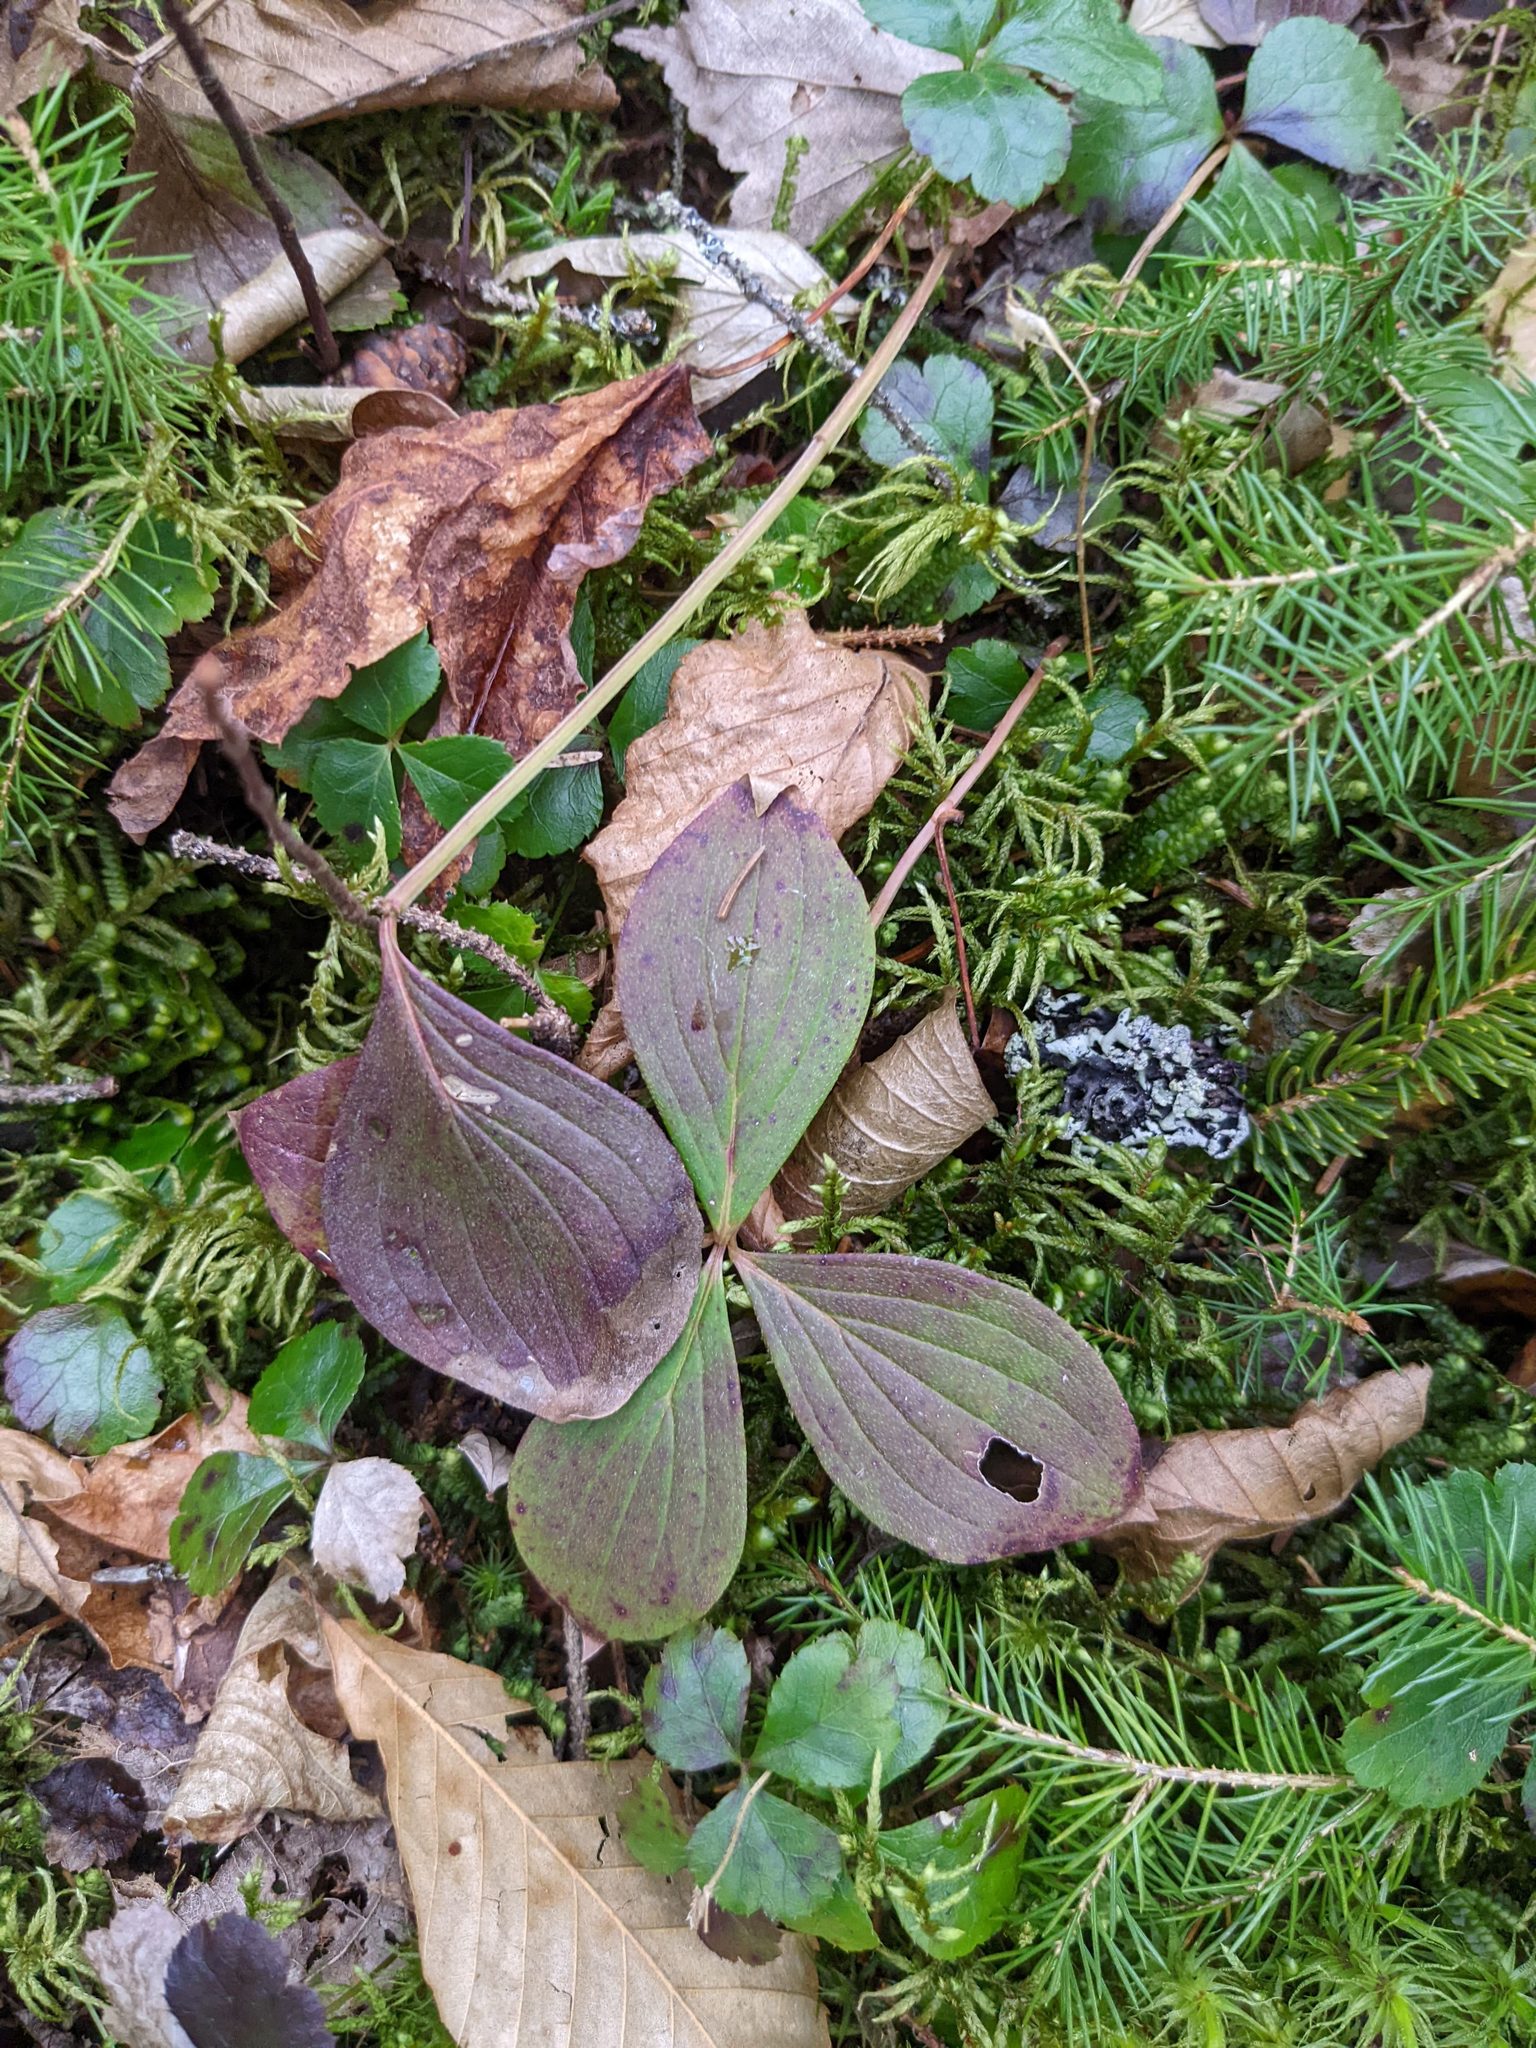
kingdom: Plantae
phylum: Tracheophyta
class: Magnoliopsida
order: Cornales
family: Cornaceae
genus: Cornus
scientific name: Cornus canadensis
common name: Creeping dogwood
